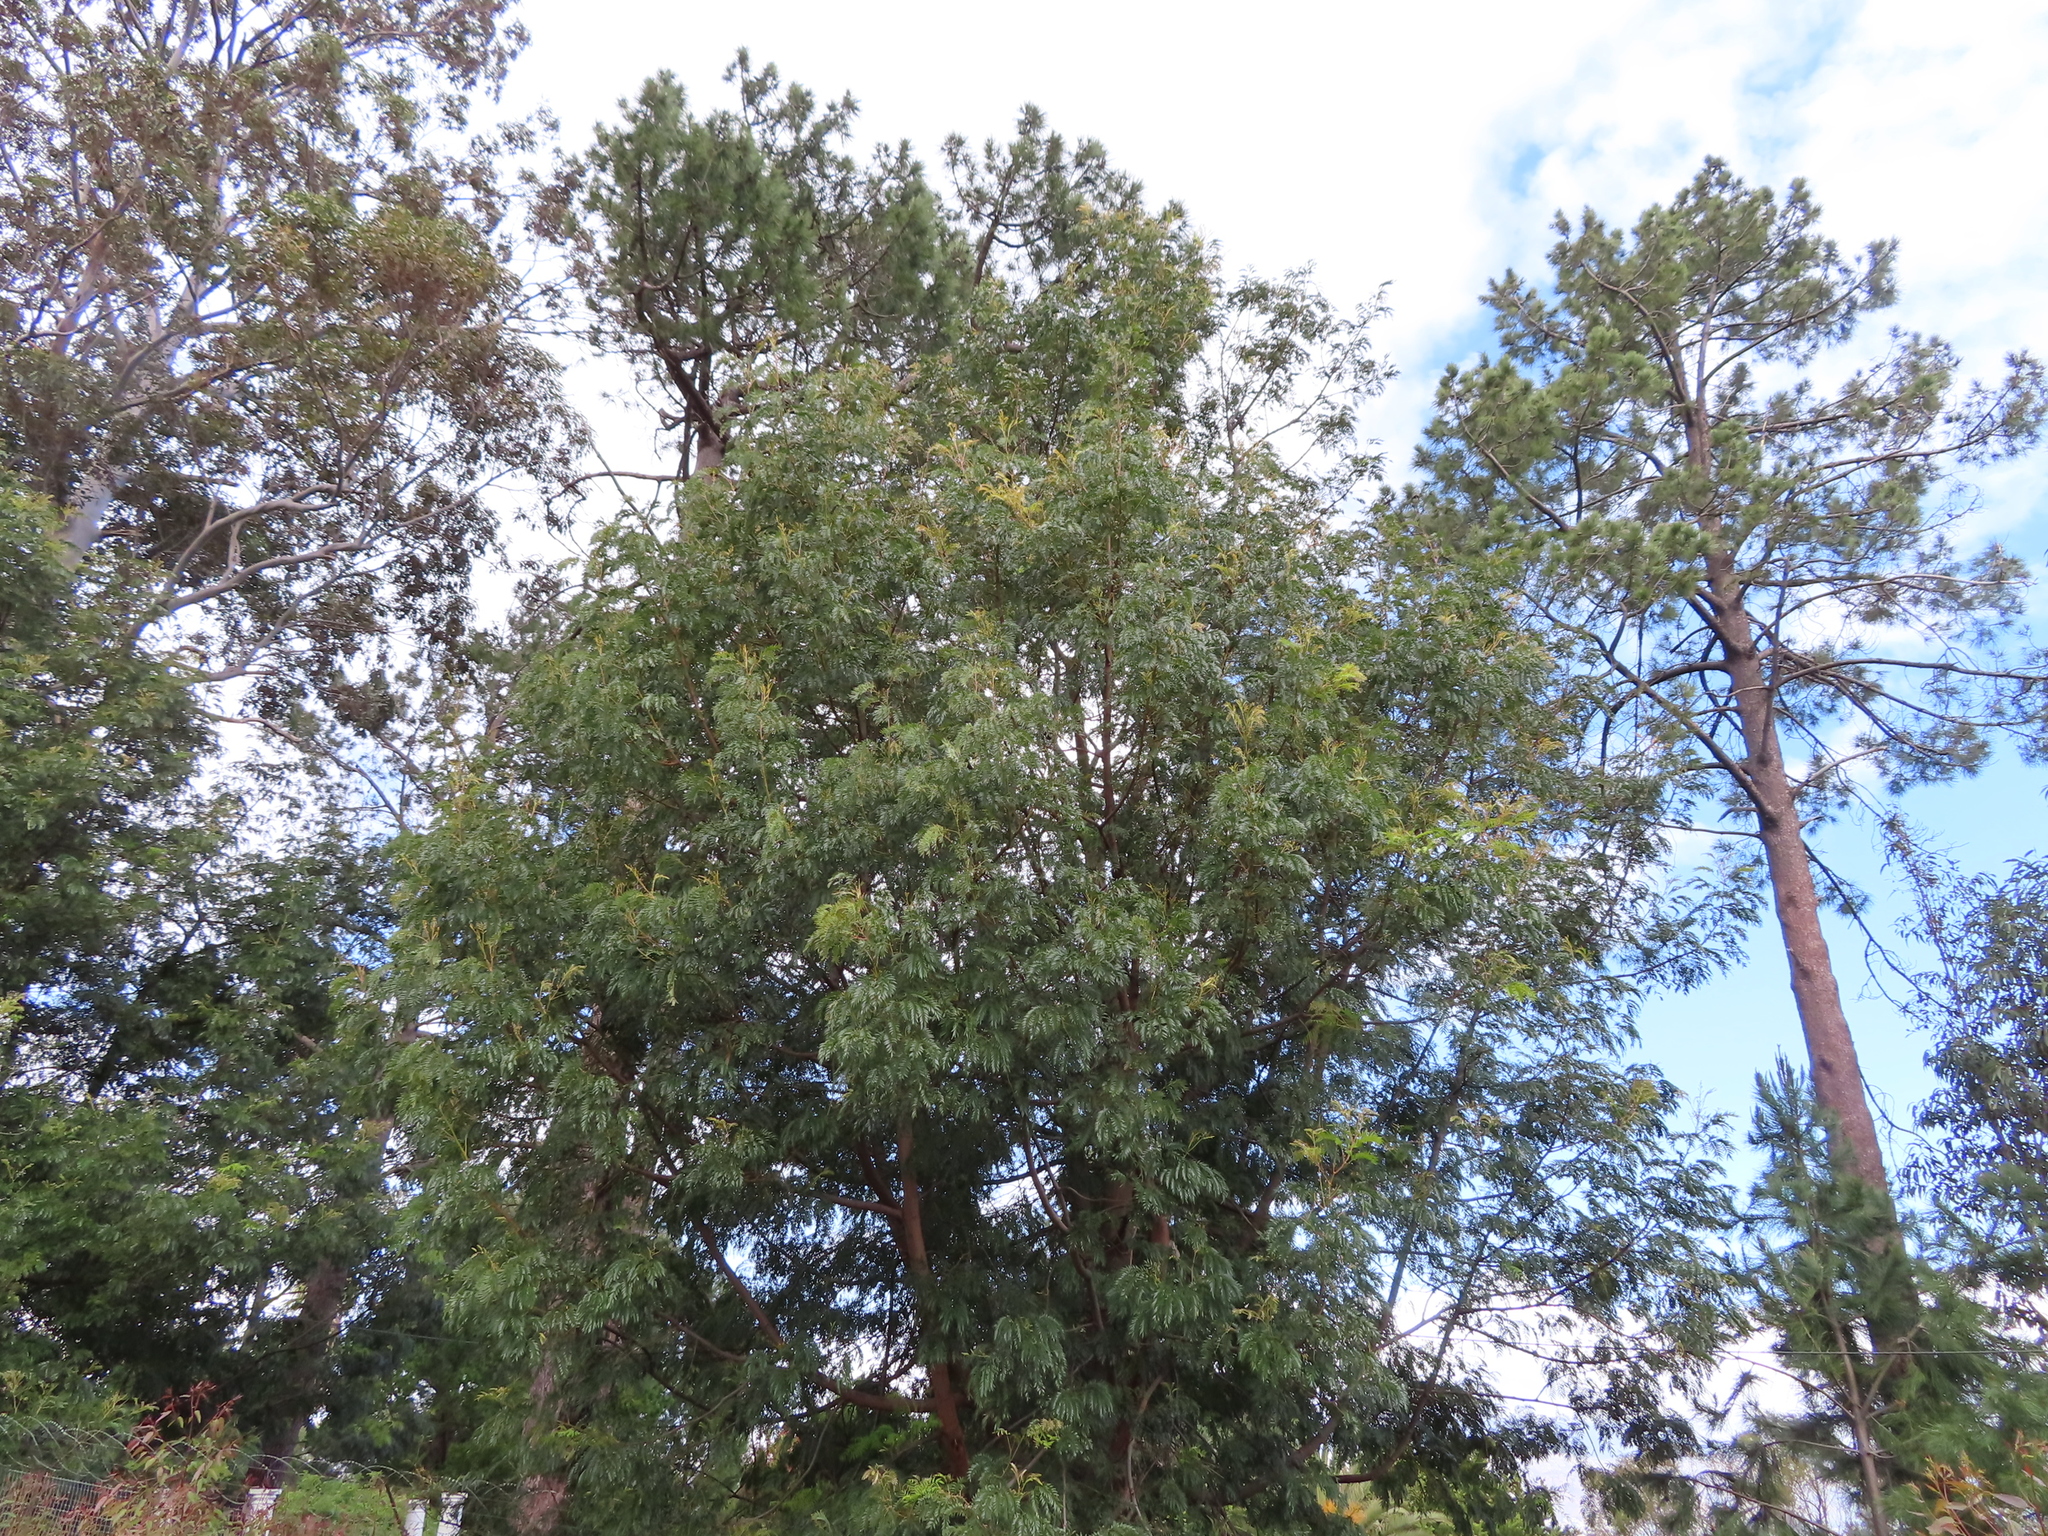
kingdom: Plantae
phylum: Tracheophyta
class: Magnoliopsida
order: Fabales
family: Fabaceae
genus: Acacia
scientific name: Acacia elata
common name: Cedar wattle
